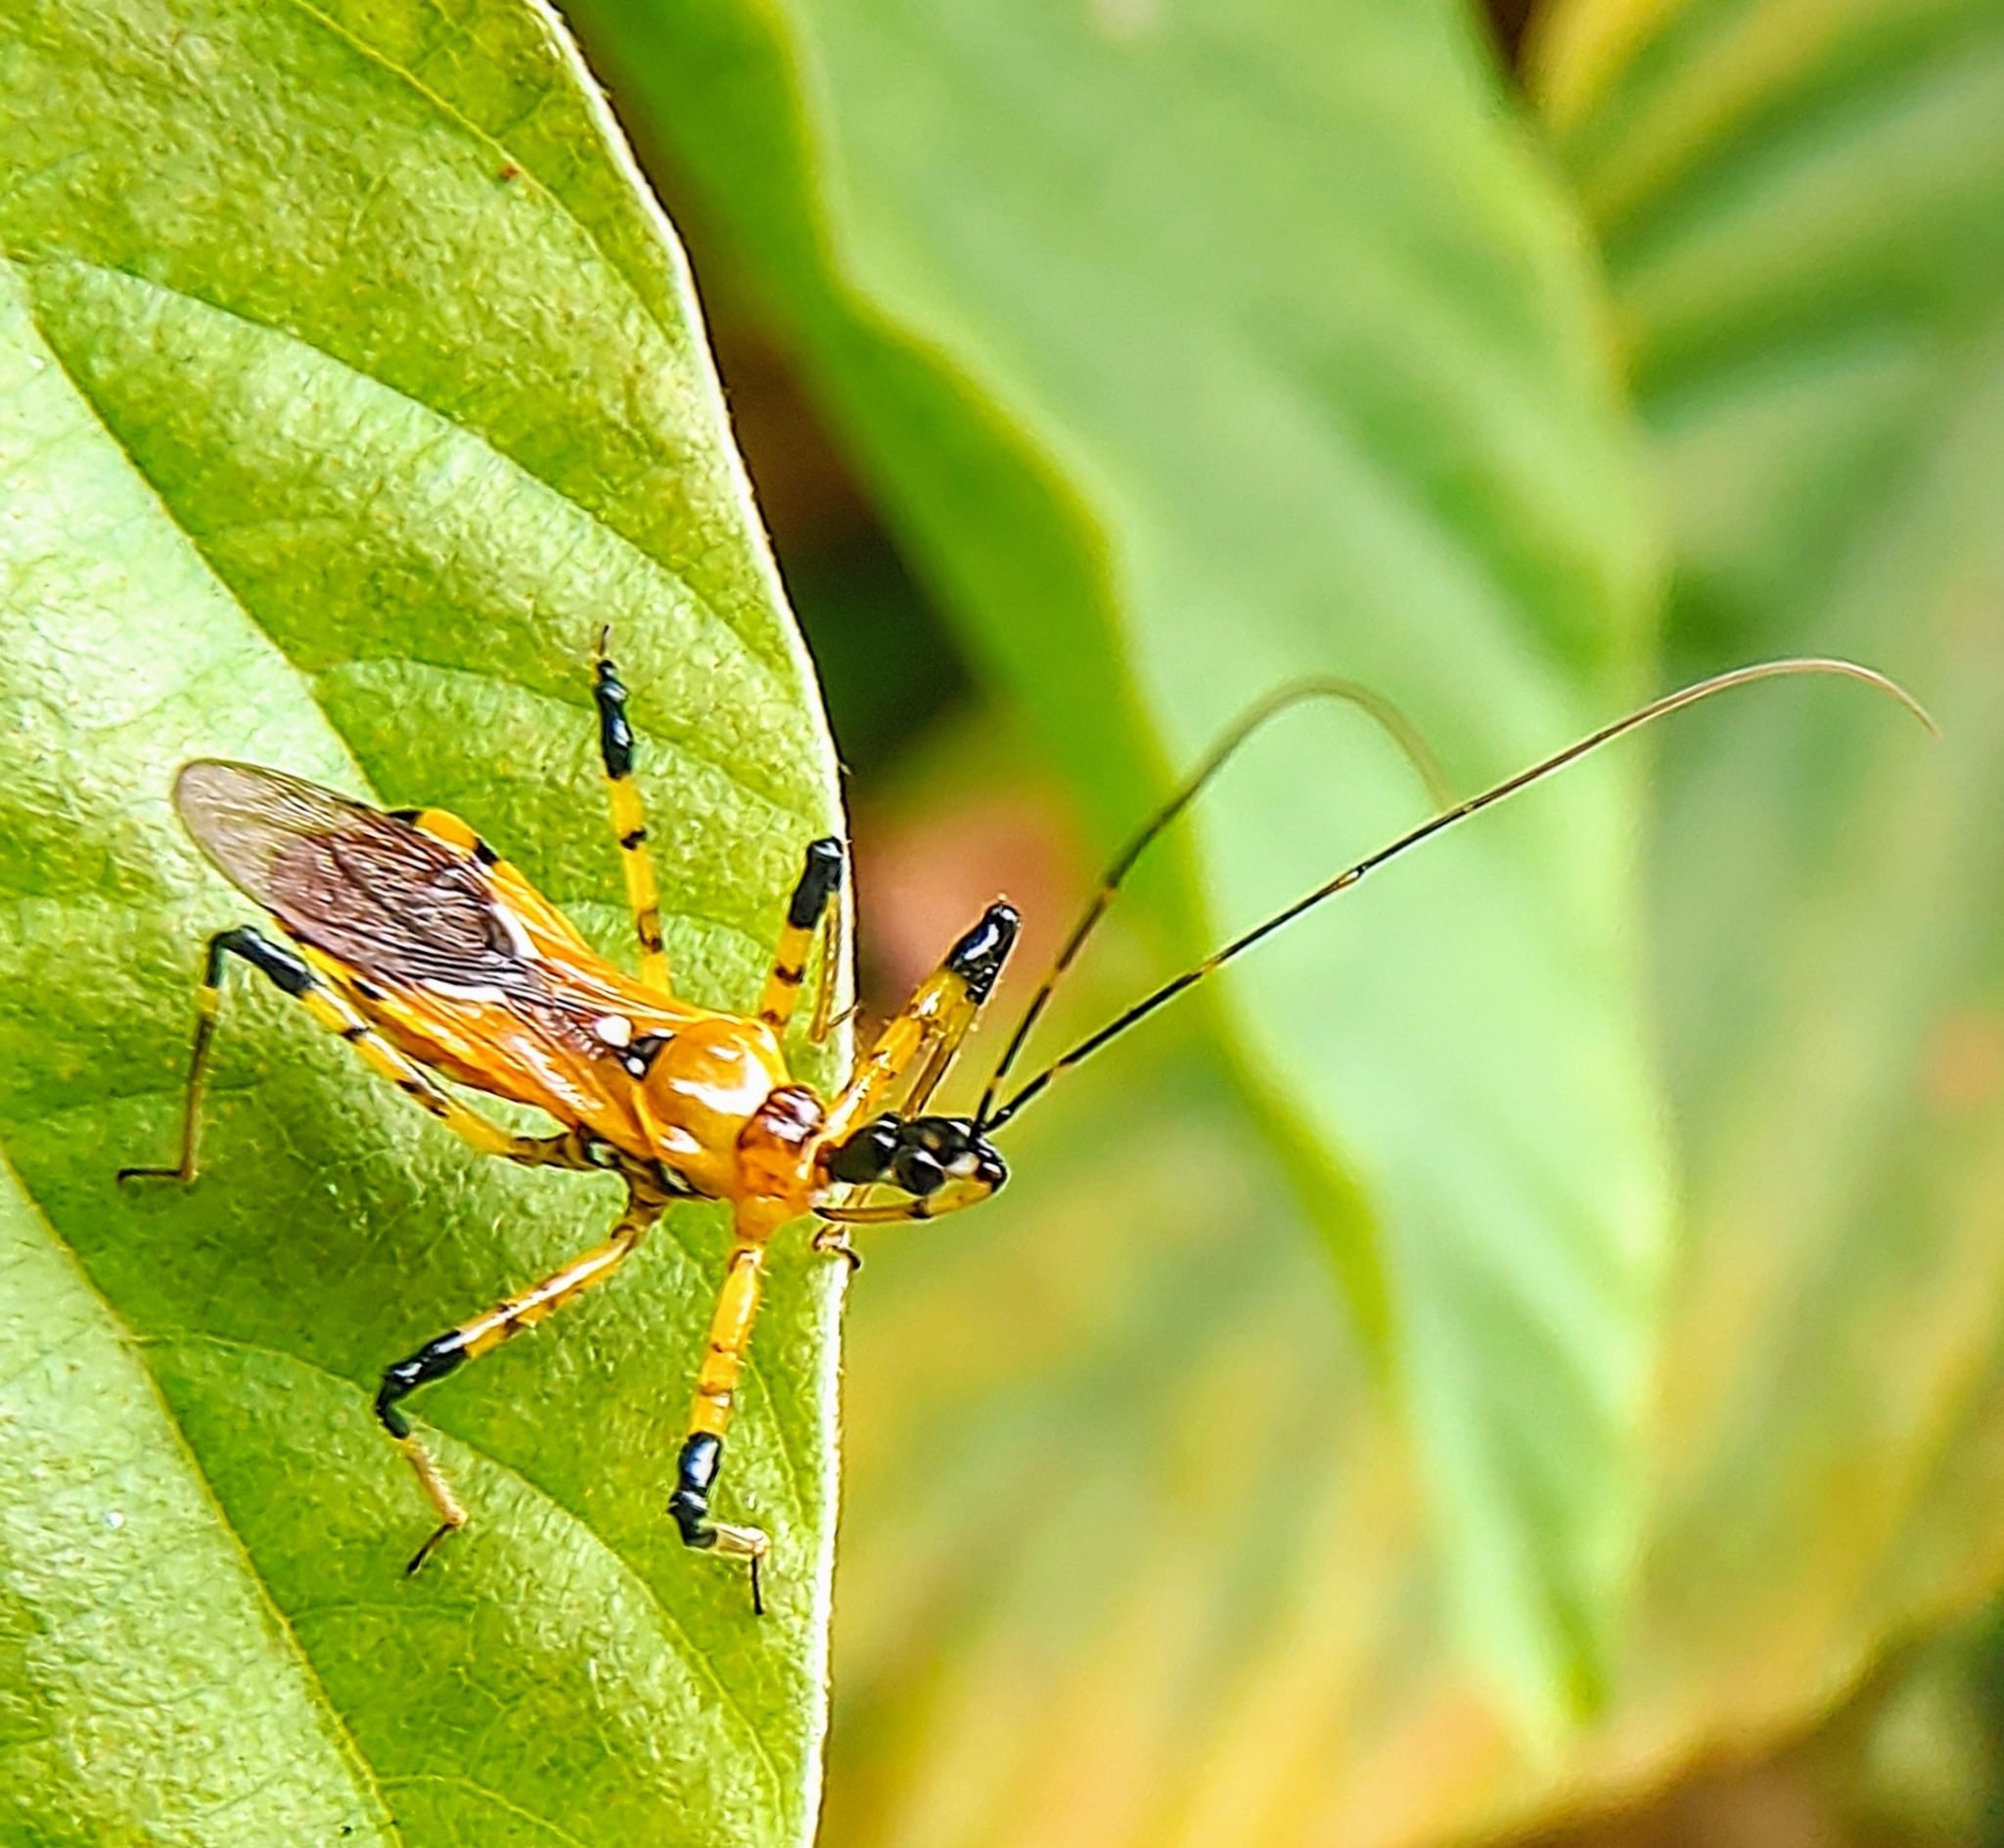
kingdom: Animalia
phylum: Arthropoda
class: Insecta
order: Hemiptera
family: Reduviidae
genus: Cosmolestes
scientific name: Cosmolestes picticeps
